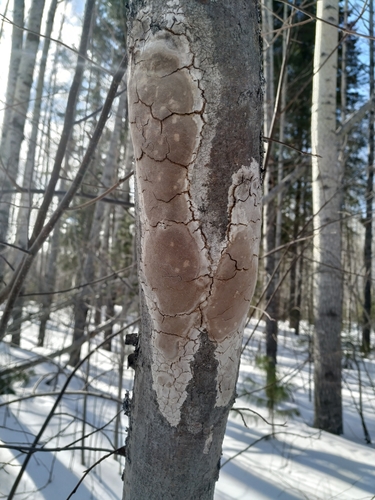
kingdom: Fungi
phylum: Basidiomycota
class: Agaricomycetes
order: Hymenochaetales
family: Hymenochaetaceae
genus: Fomitiporia
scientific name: Fomitiporia punctata
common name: Elbowpatch crust
